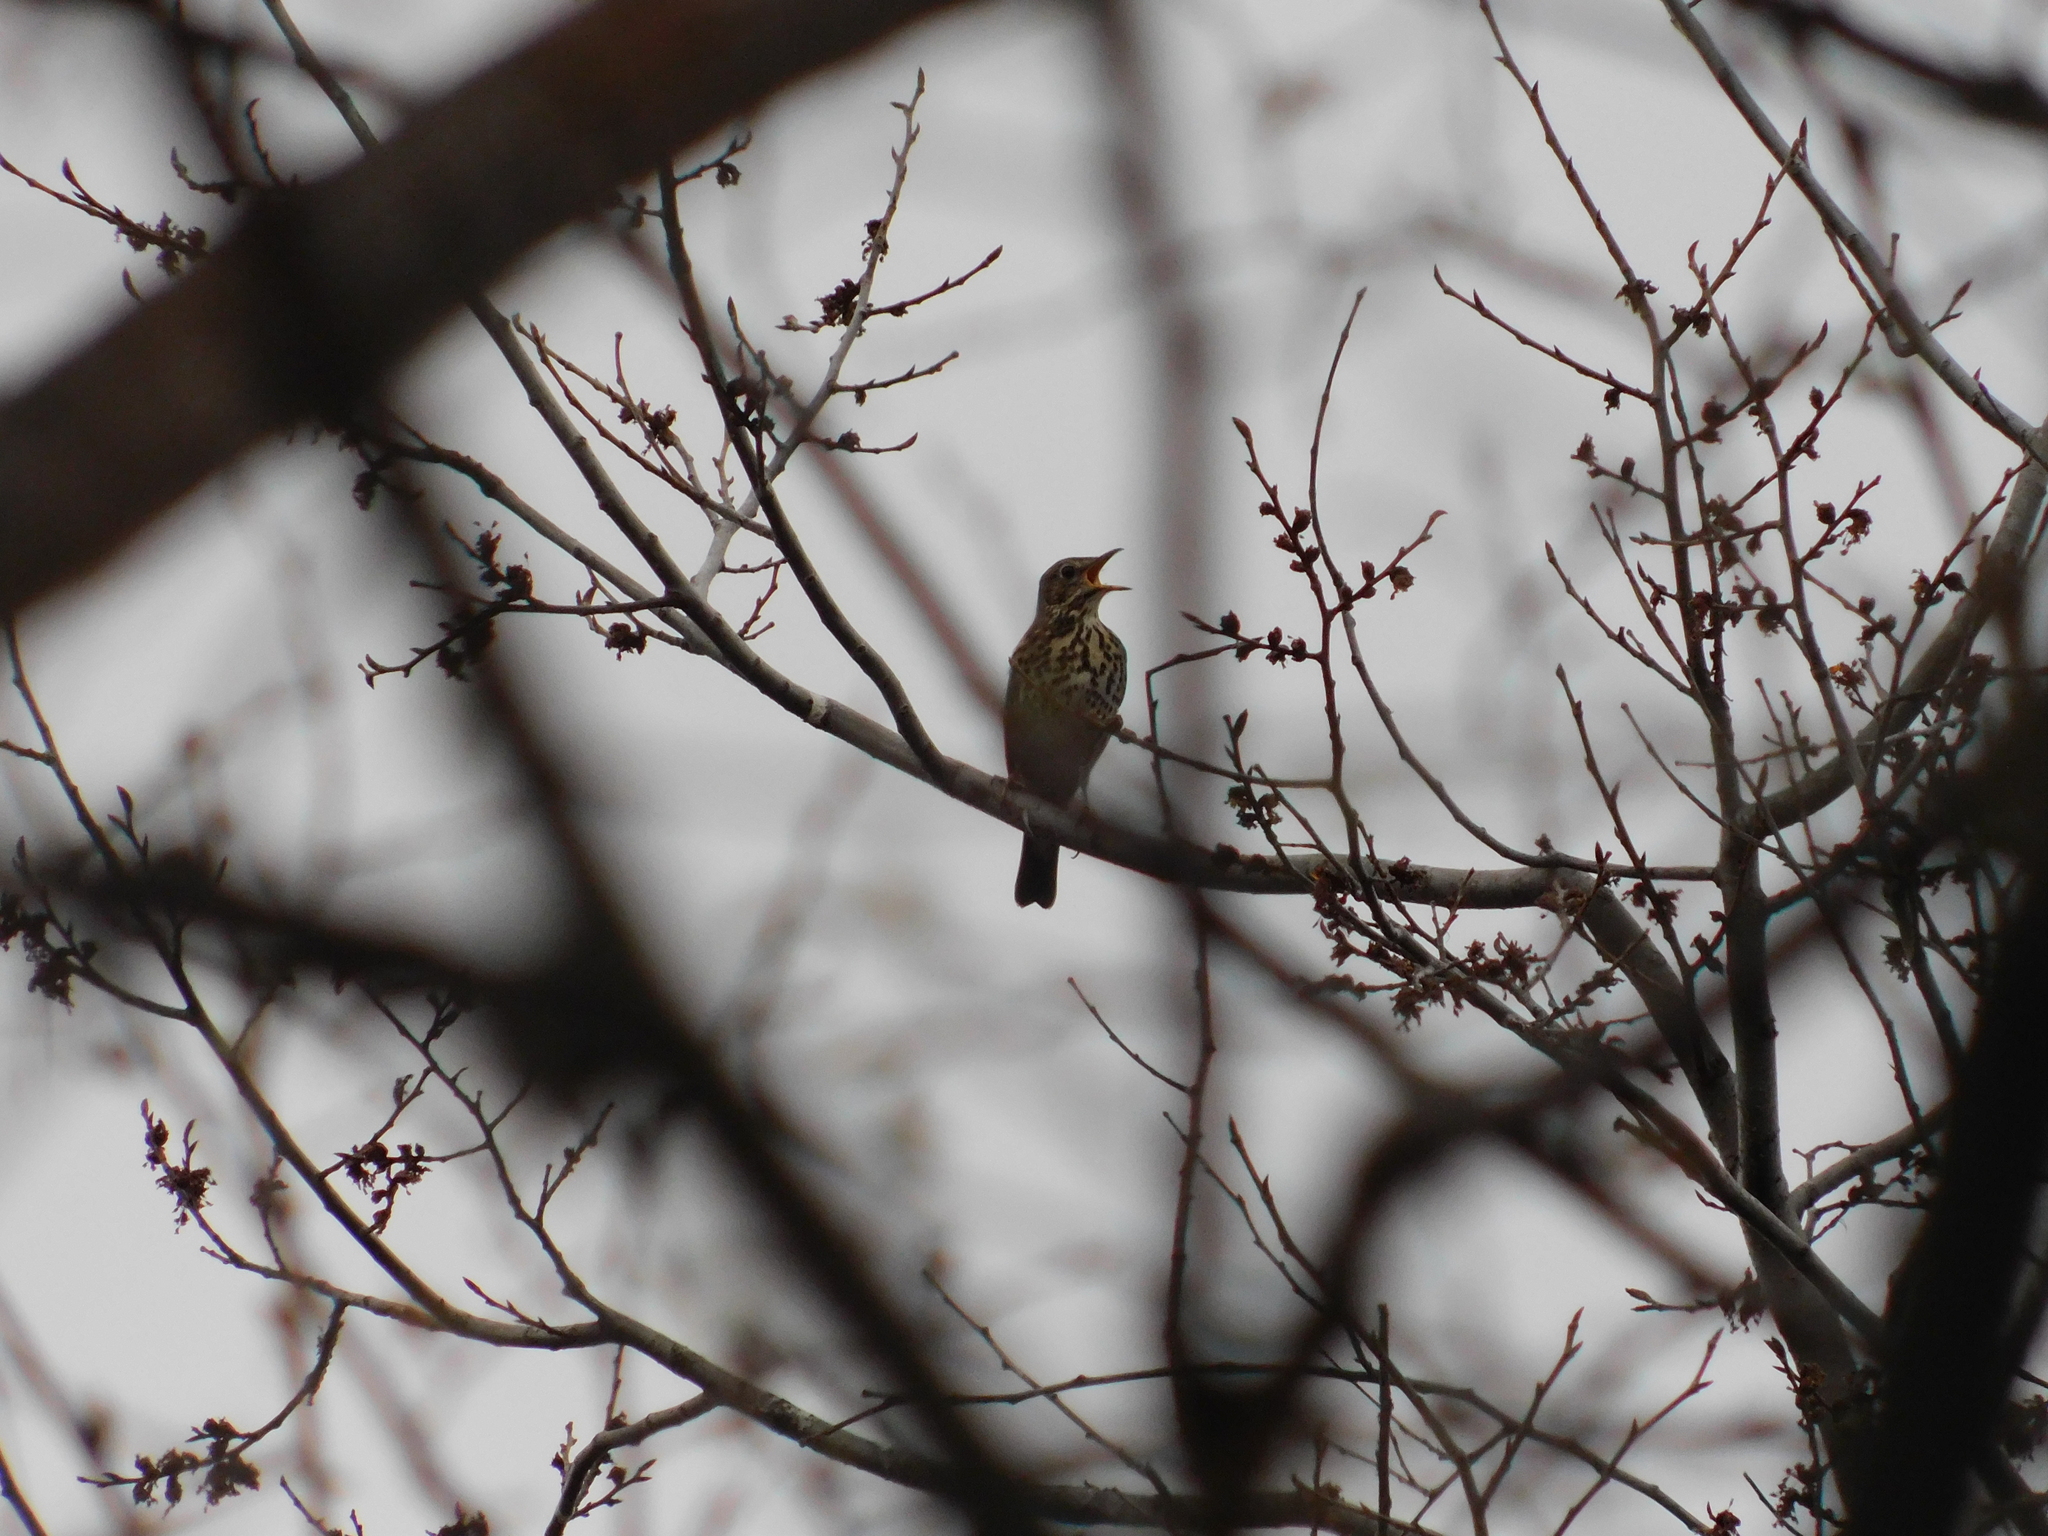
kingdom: Animalia
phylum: Chordata
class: Aves
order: Passeriformes
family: Turdidae
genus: Turdus
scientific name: Turdus philomelos
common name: Song thrush
